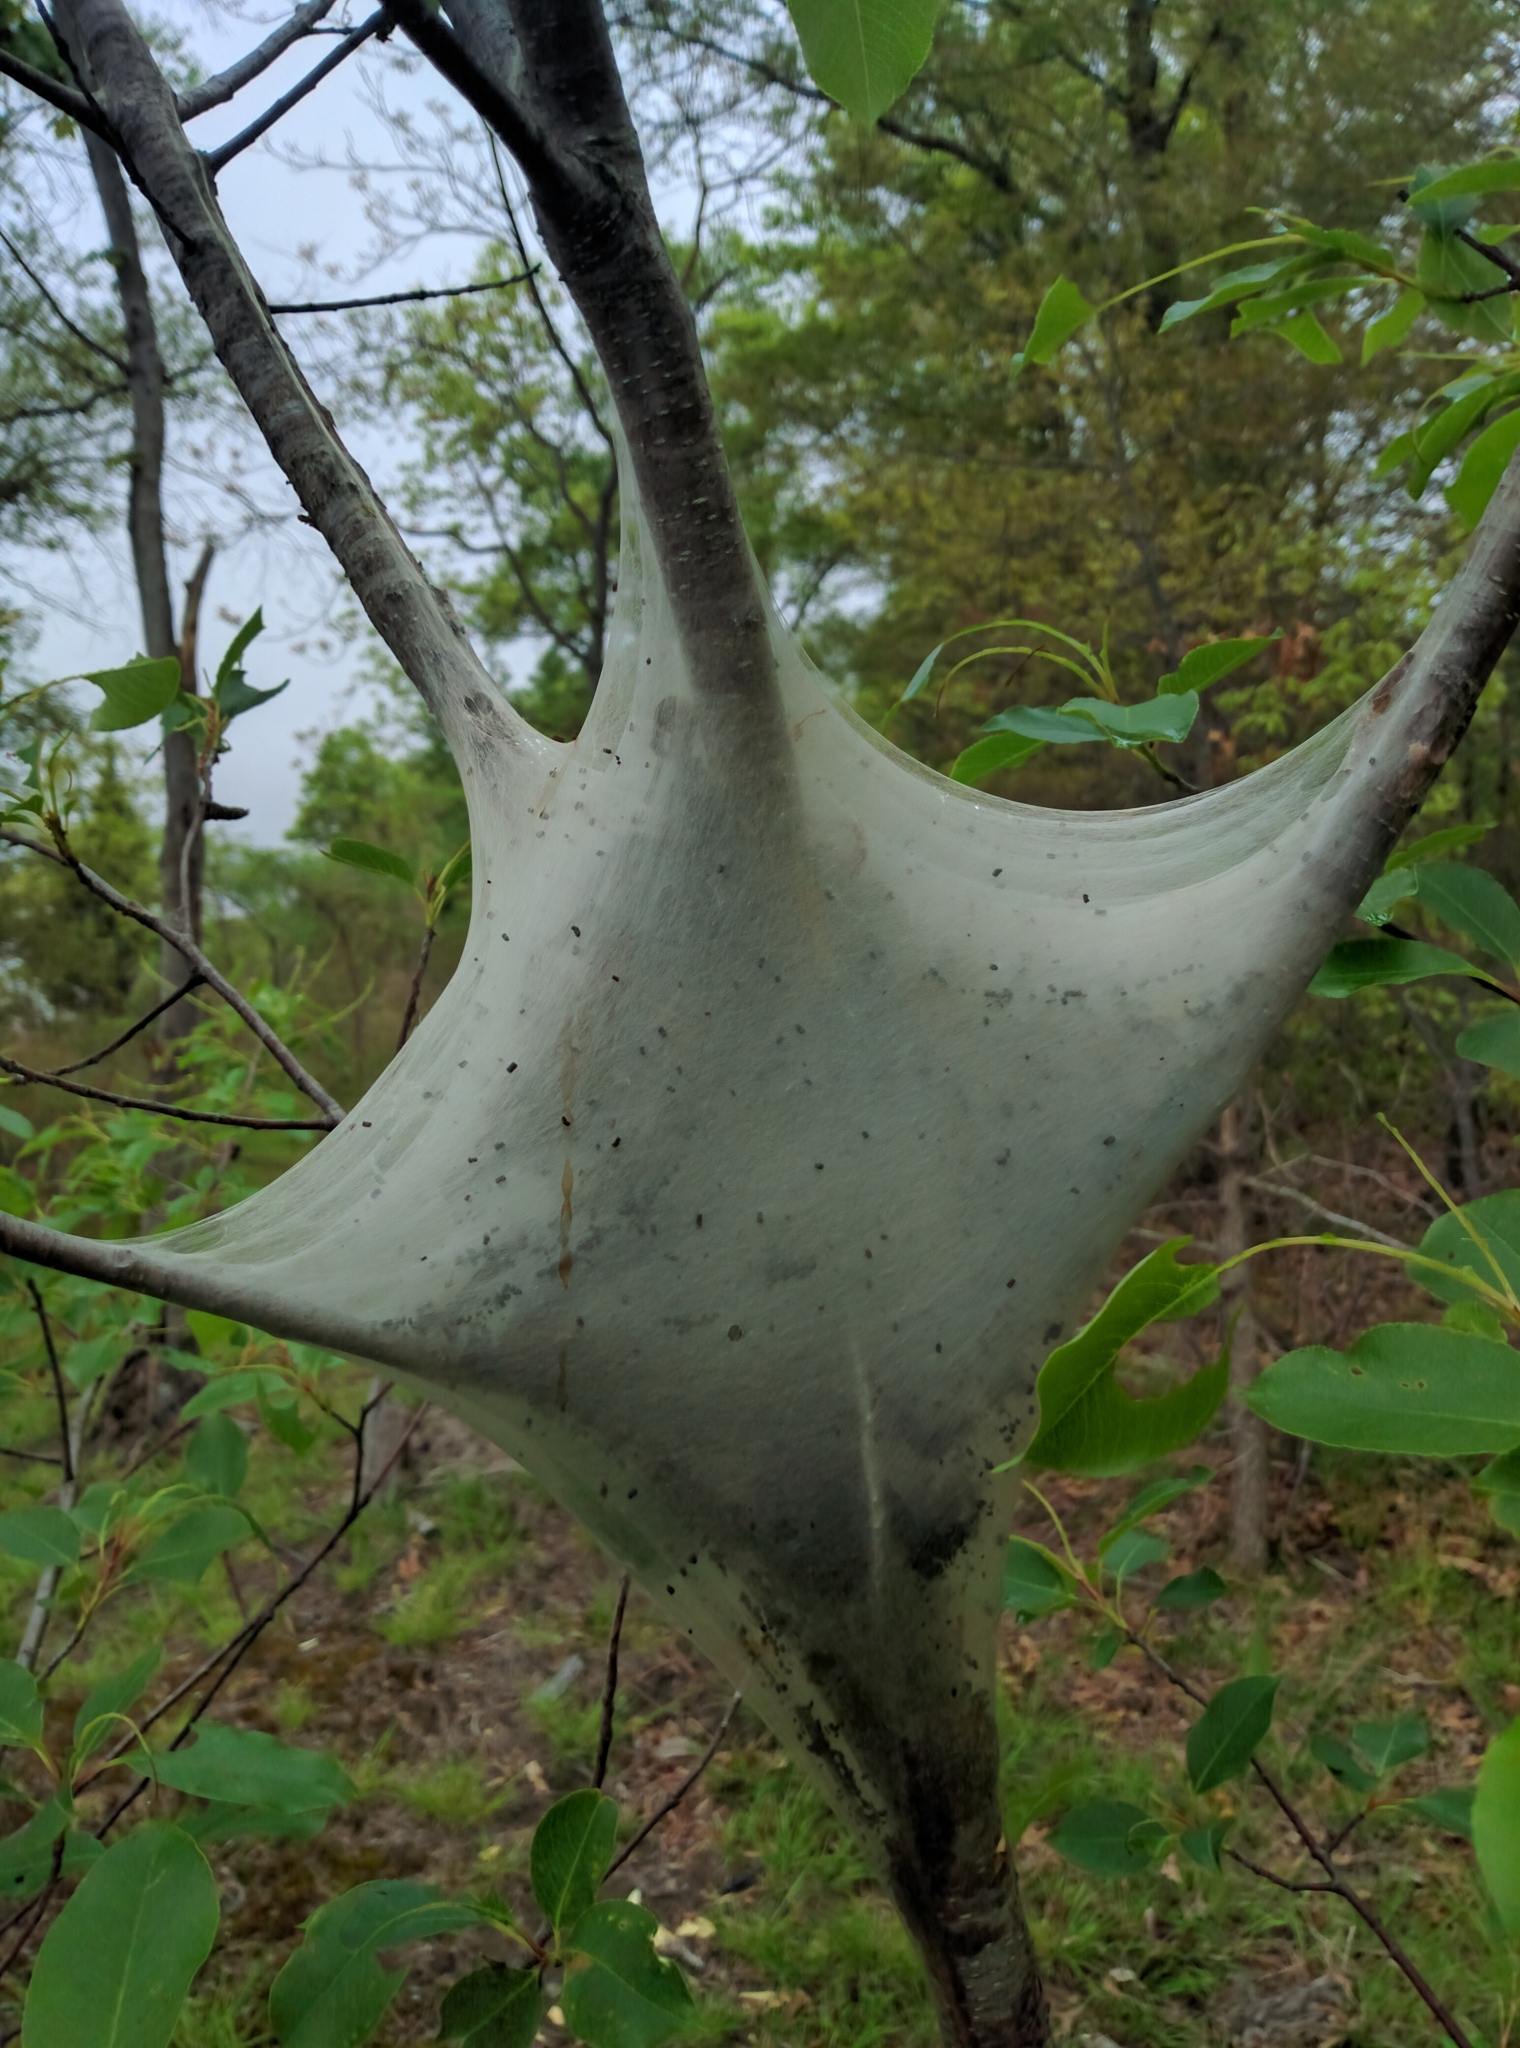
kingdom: Animalia
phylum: Arthropoda
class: Insecta
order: Lepidoptera
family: Lasiocampidae
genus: Malacosoma
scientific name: Malacosoma americana
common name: Eastern tent caterpillar moth
